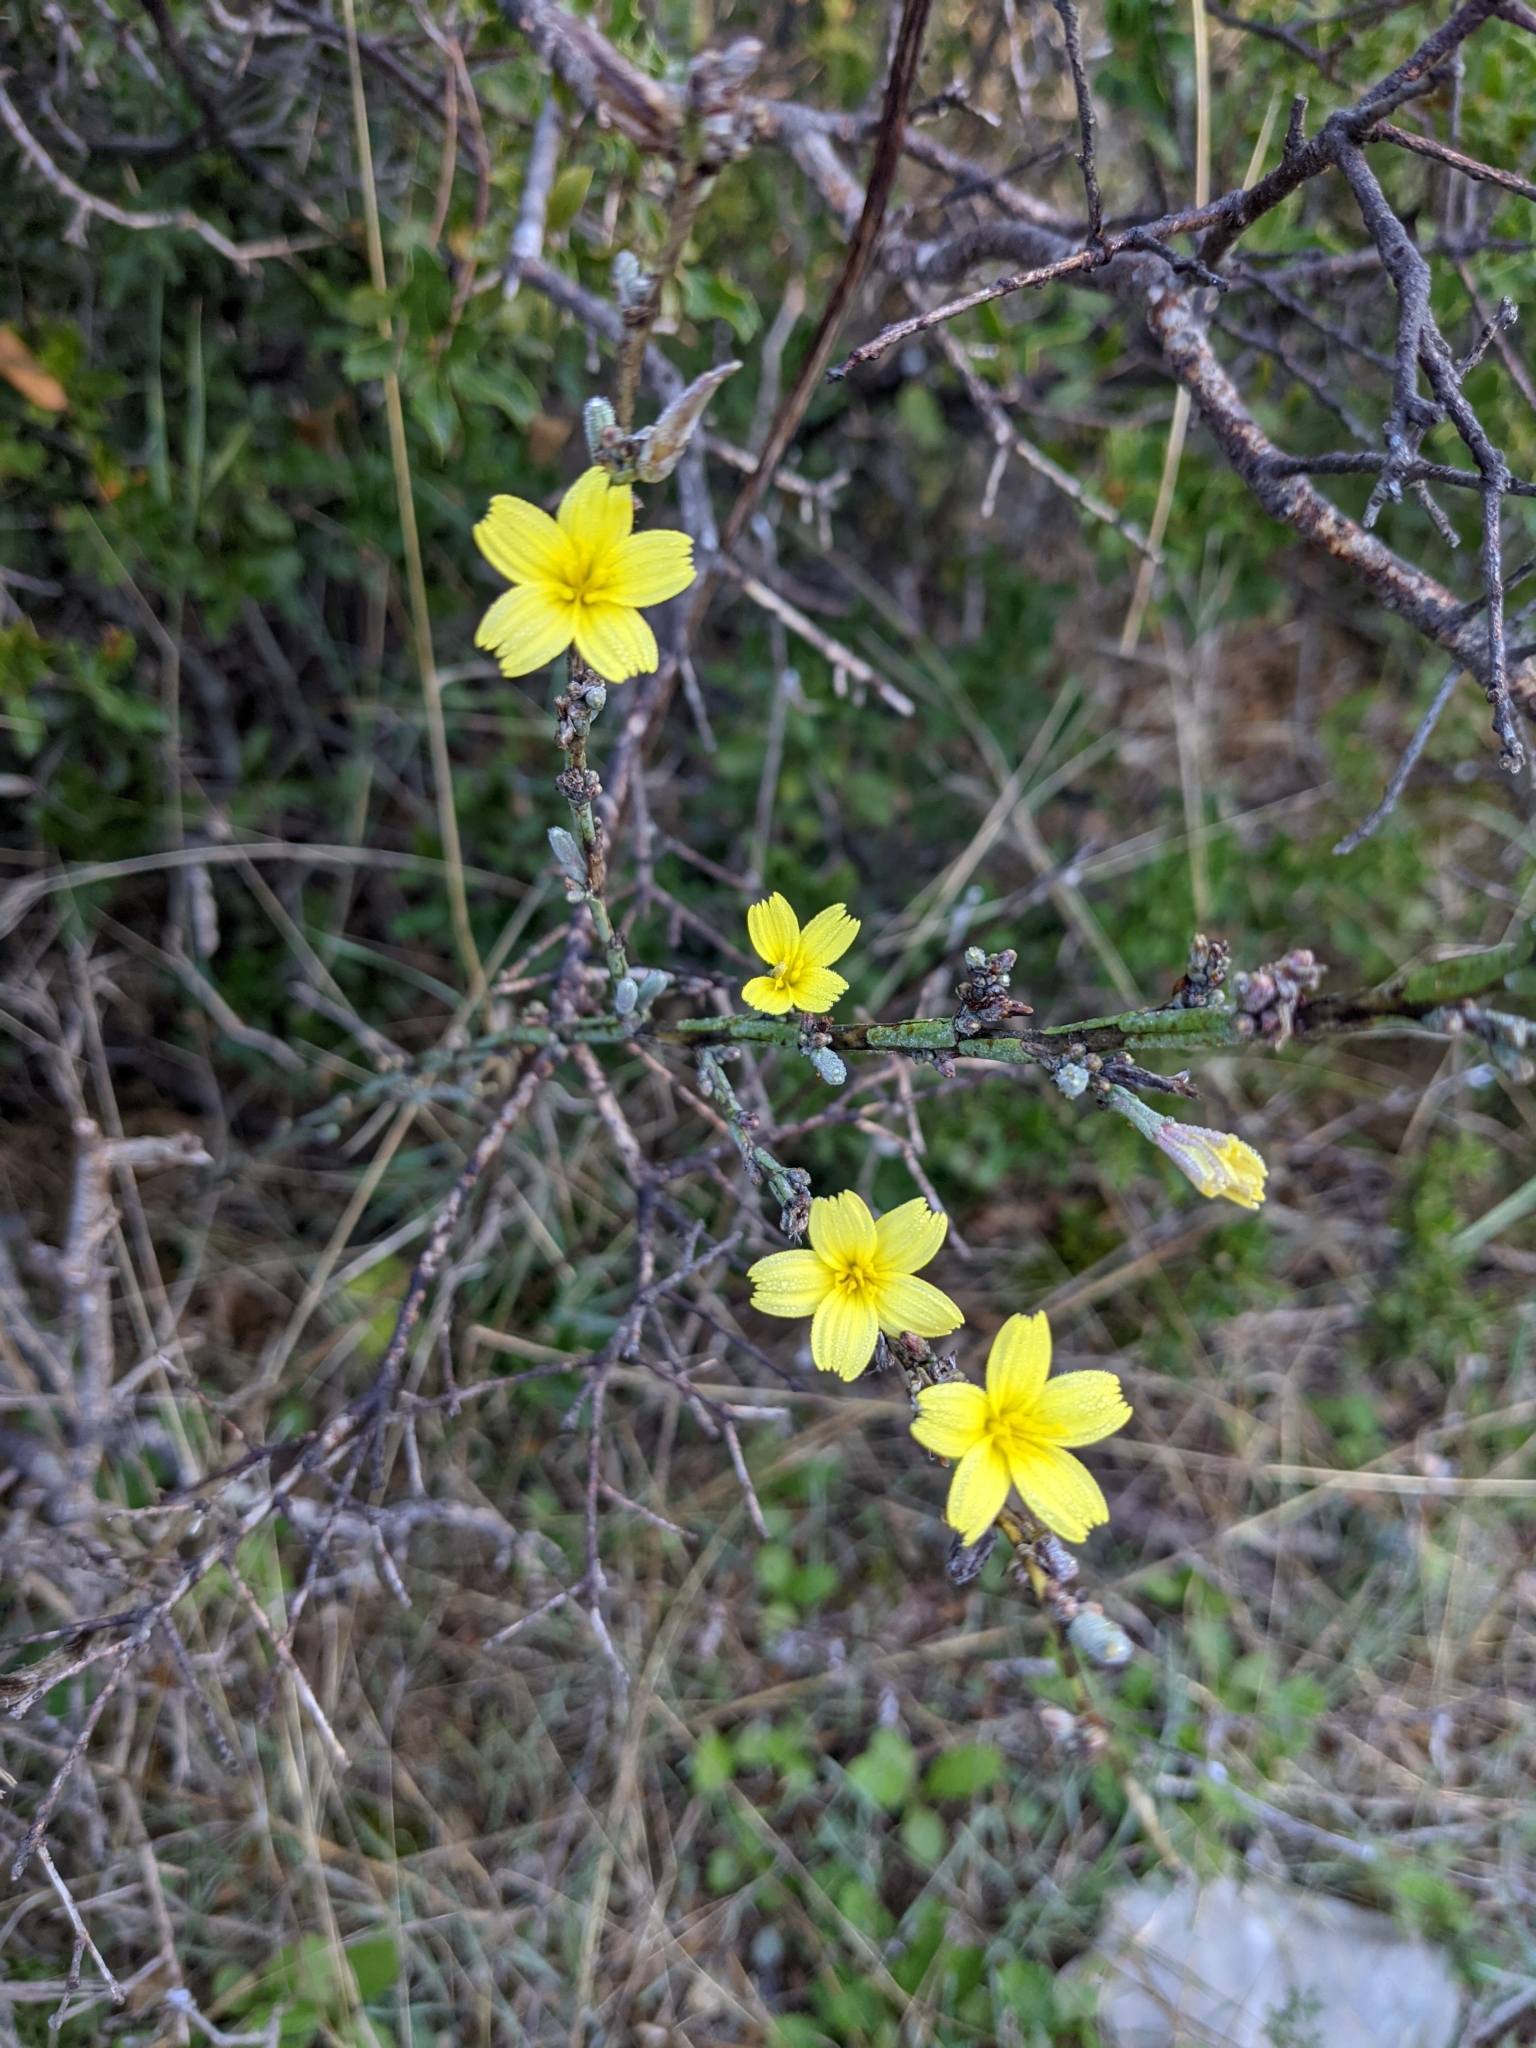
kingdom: Plantae
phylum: Tracheophyta
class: Magnoliopsida
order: Asterales
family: Asteraceae
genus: Lactuca
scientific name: Lactuca viminea
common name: Pliant lettuce
